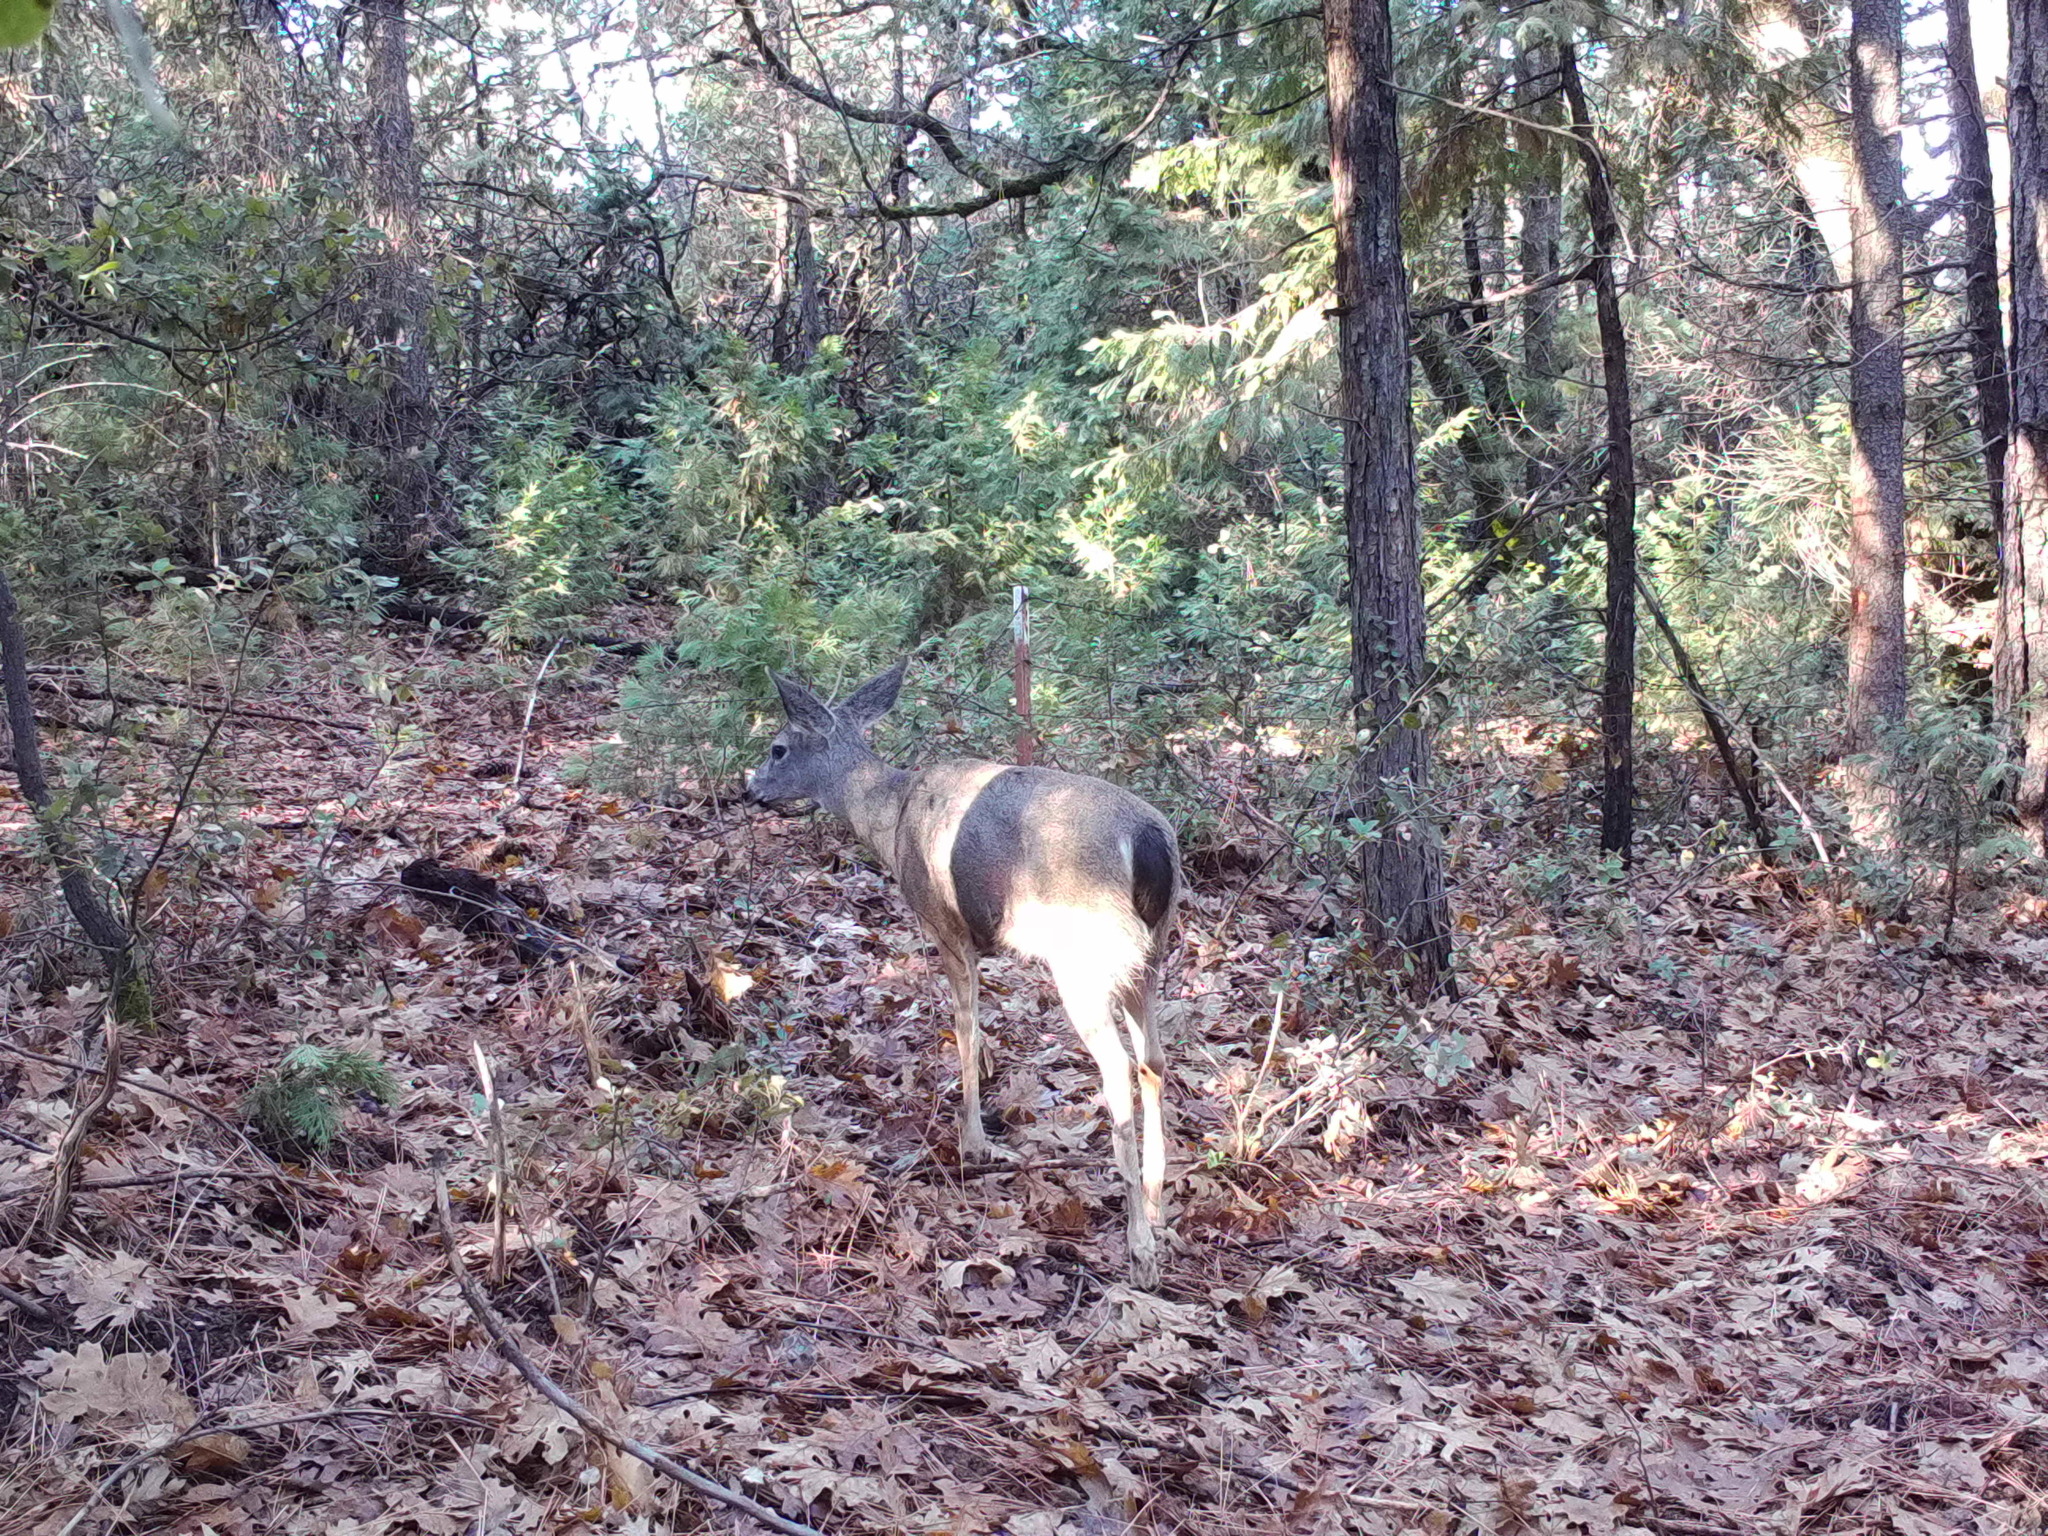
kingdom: Animalia
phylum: Chordata
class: Mammalia
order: Artiodactyla
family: Cervidae
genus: Odocoileus
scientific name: Odocoileus hemionus
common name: Mule deer
